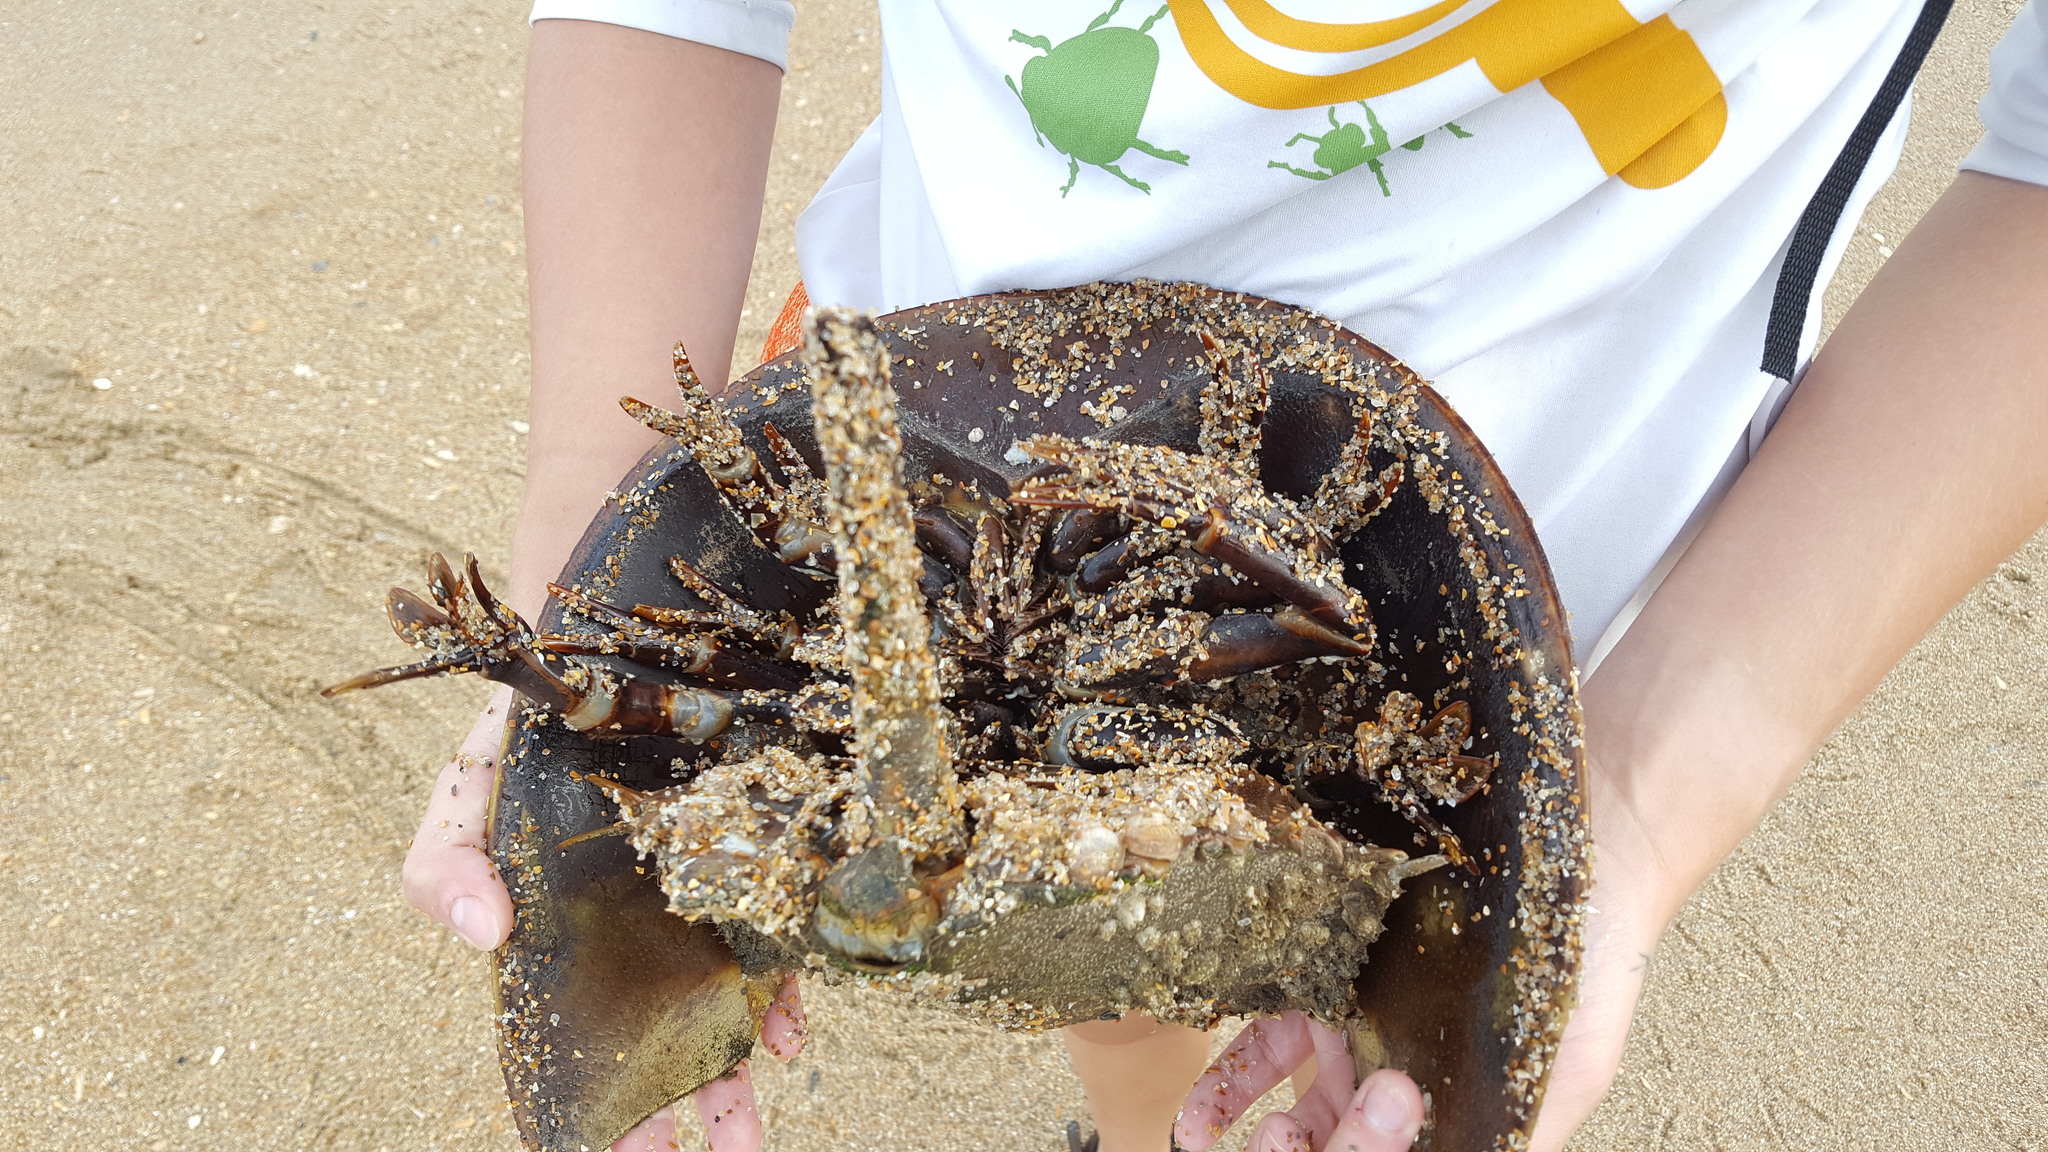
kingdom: Animalia
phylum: Arthropoda
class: Merostomata
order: Xiphosurida
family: Limulidae
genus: Limulus
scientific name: Limulus polyphemus
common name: Horseshoe crab
